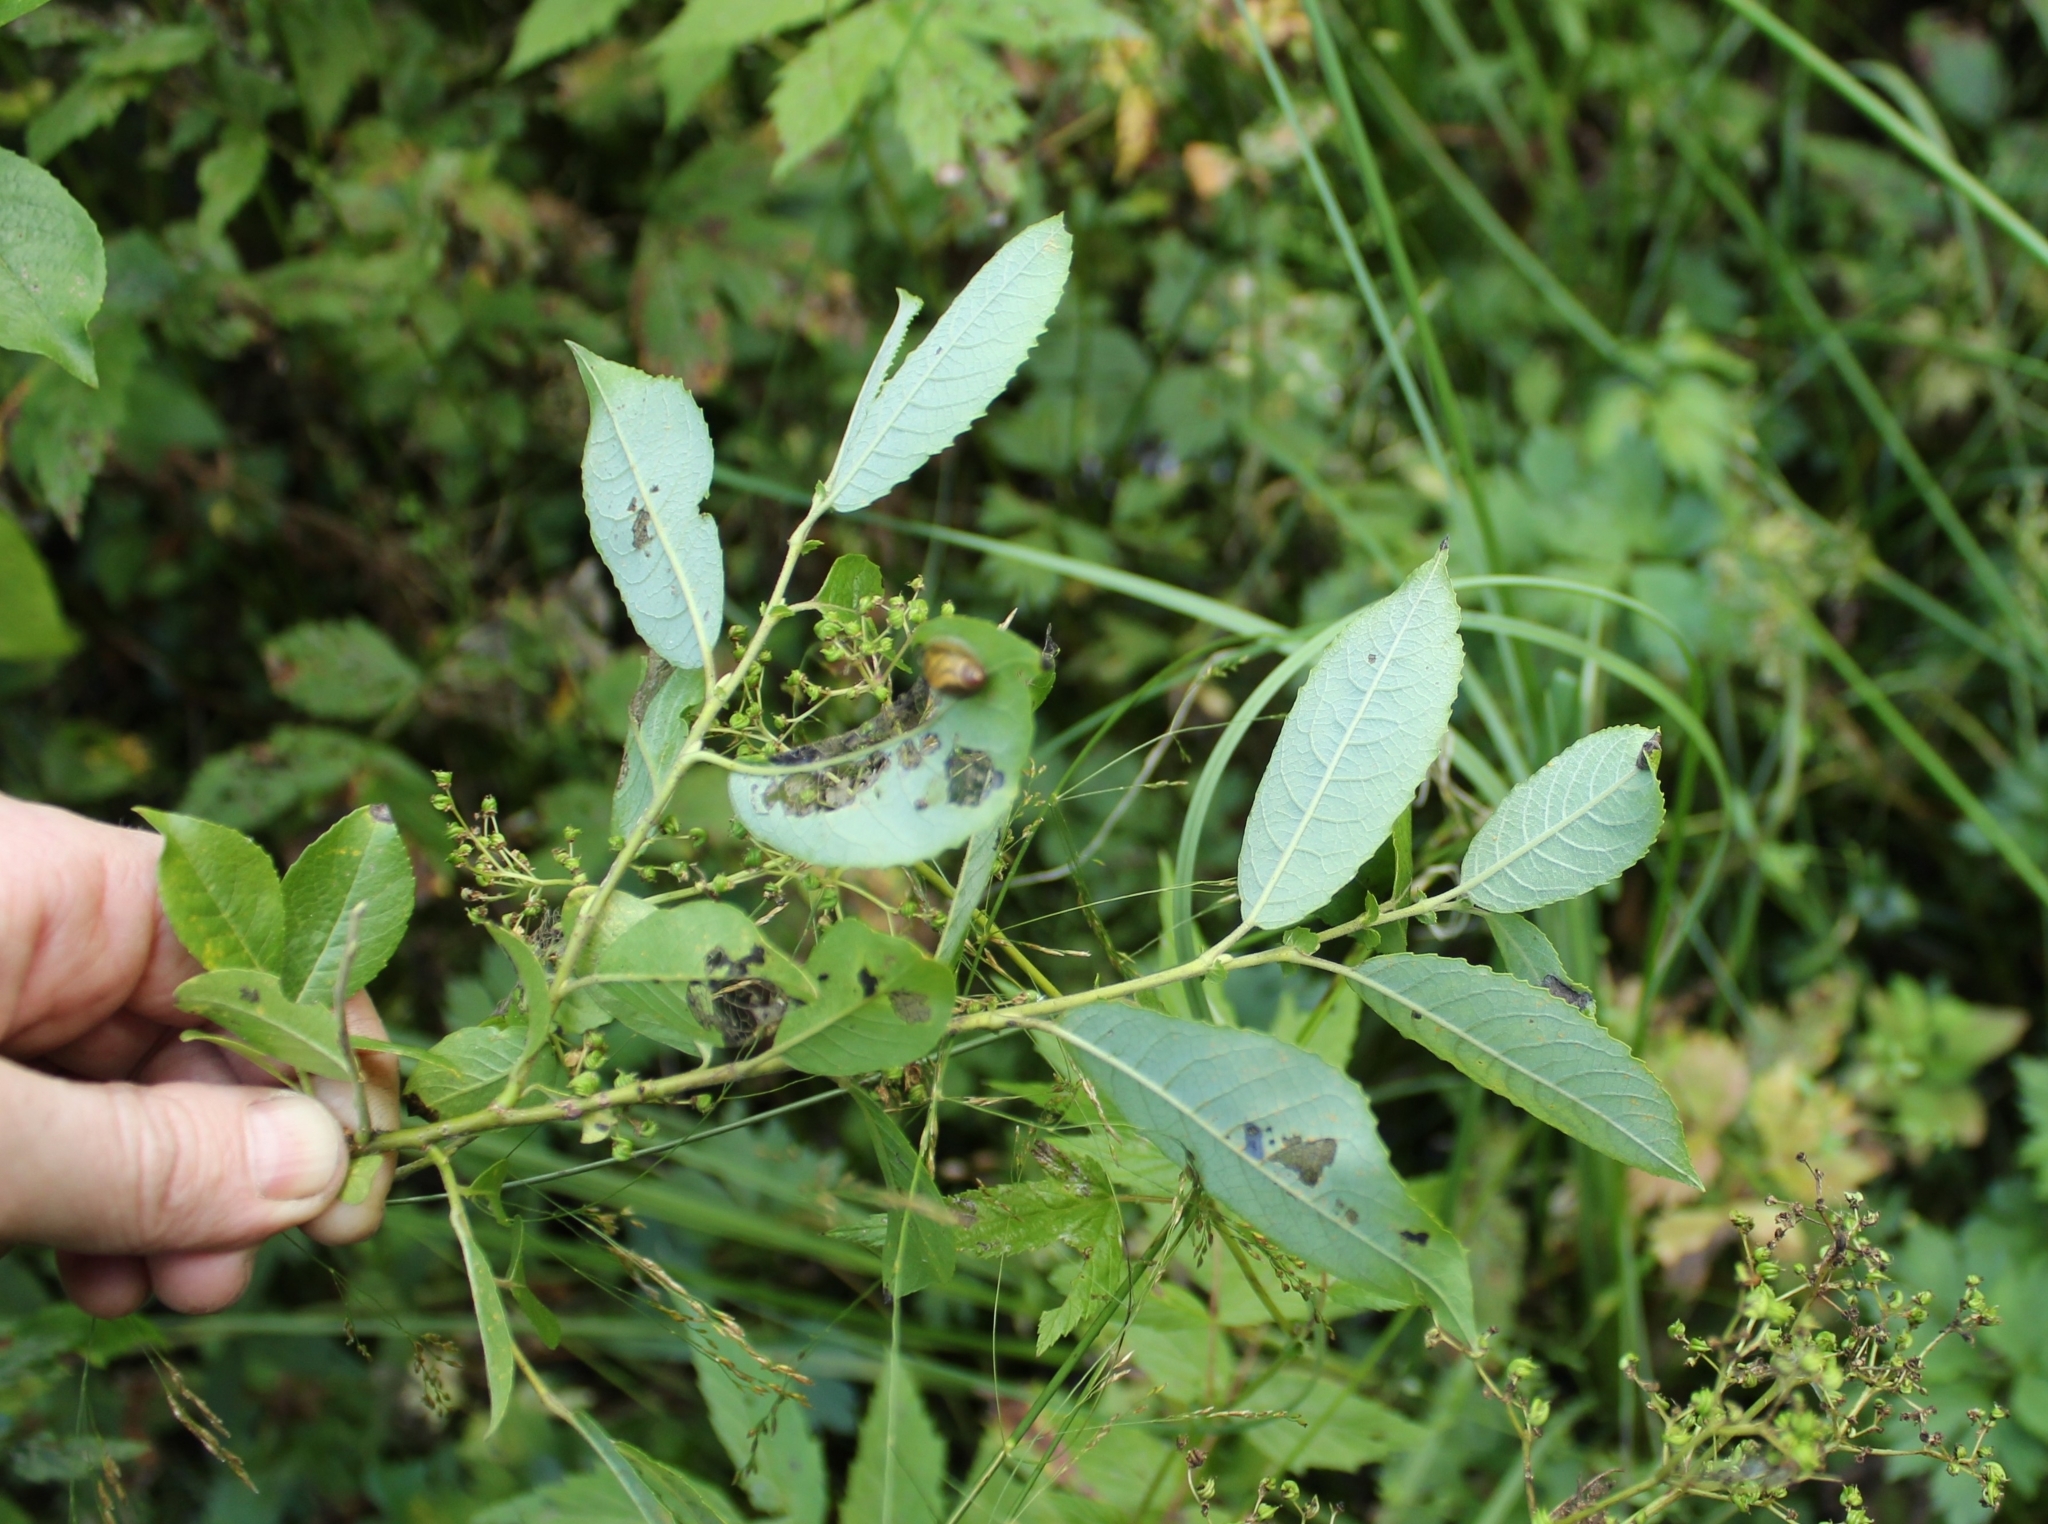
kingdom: Plantae
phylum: Tracheophyta
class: Magnoliopsida
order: Malpighiales
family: Salicaceae
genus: Salix
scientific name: Salix myrsinifolia
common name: Dark-leaved willow
